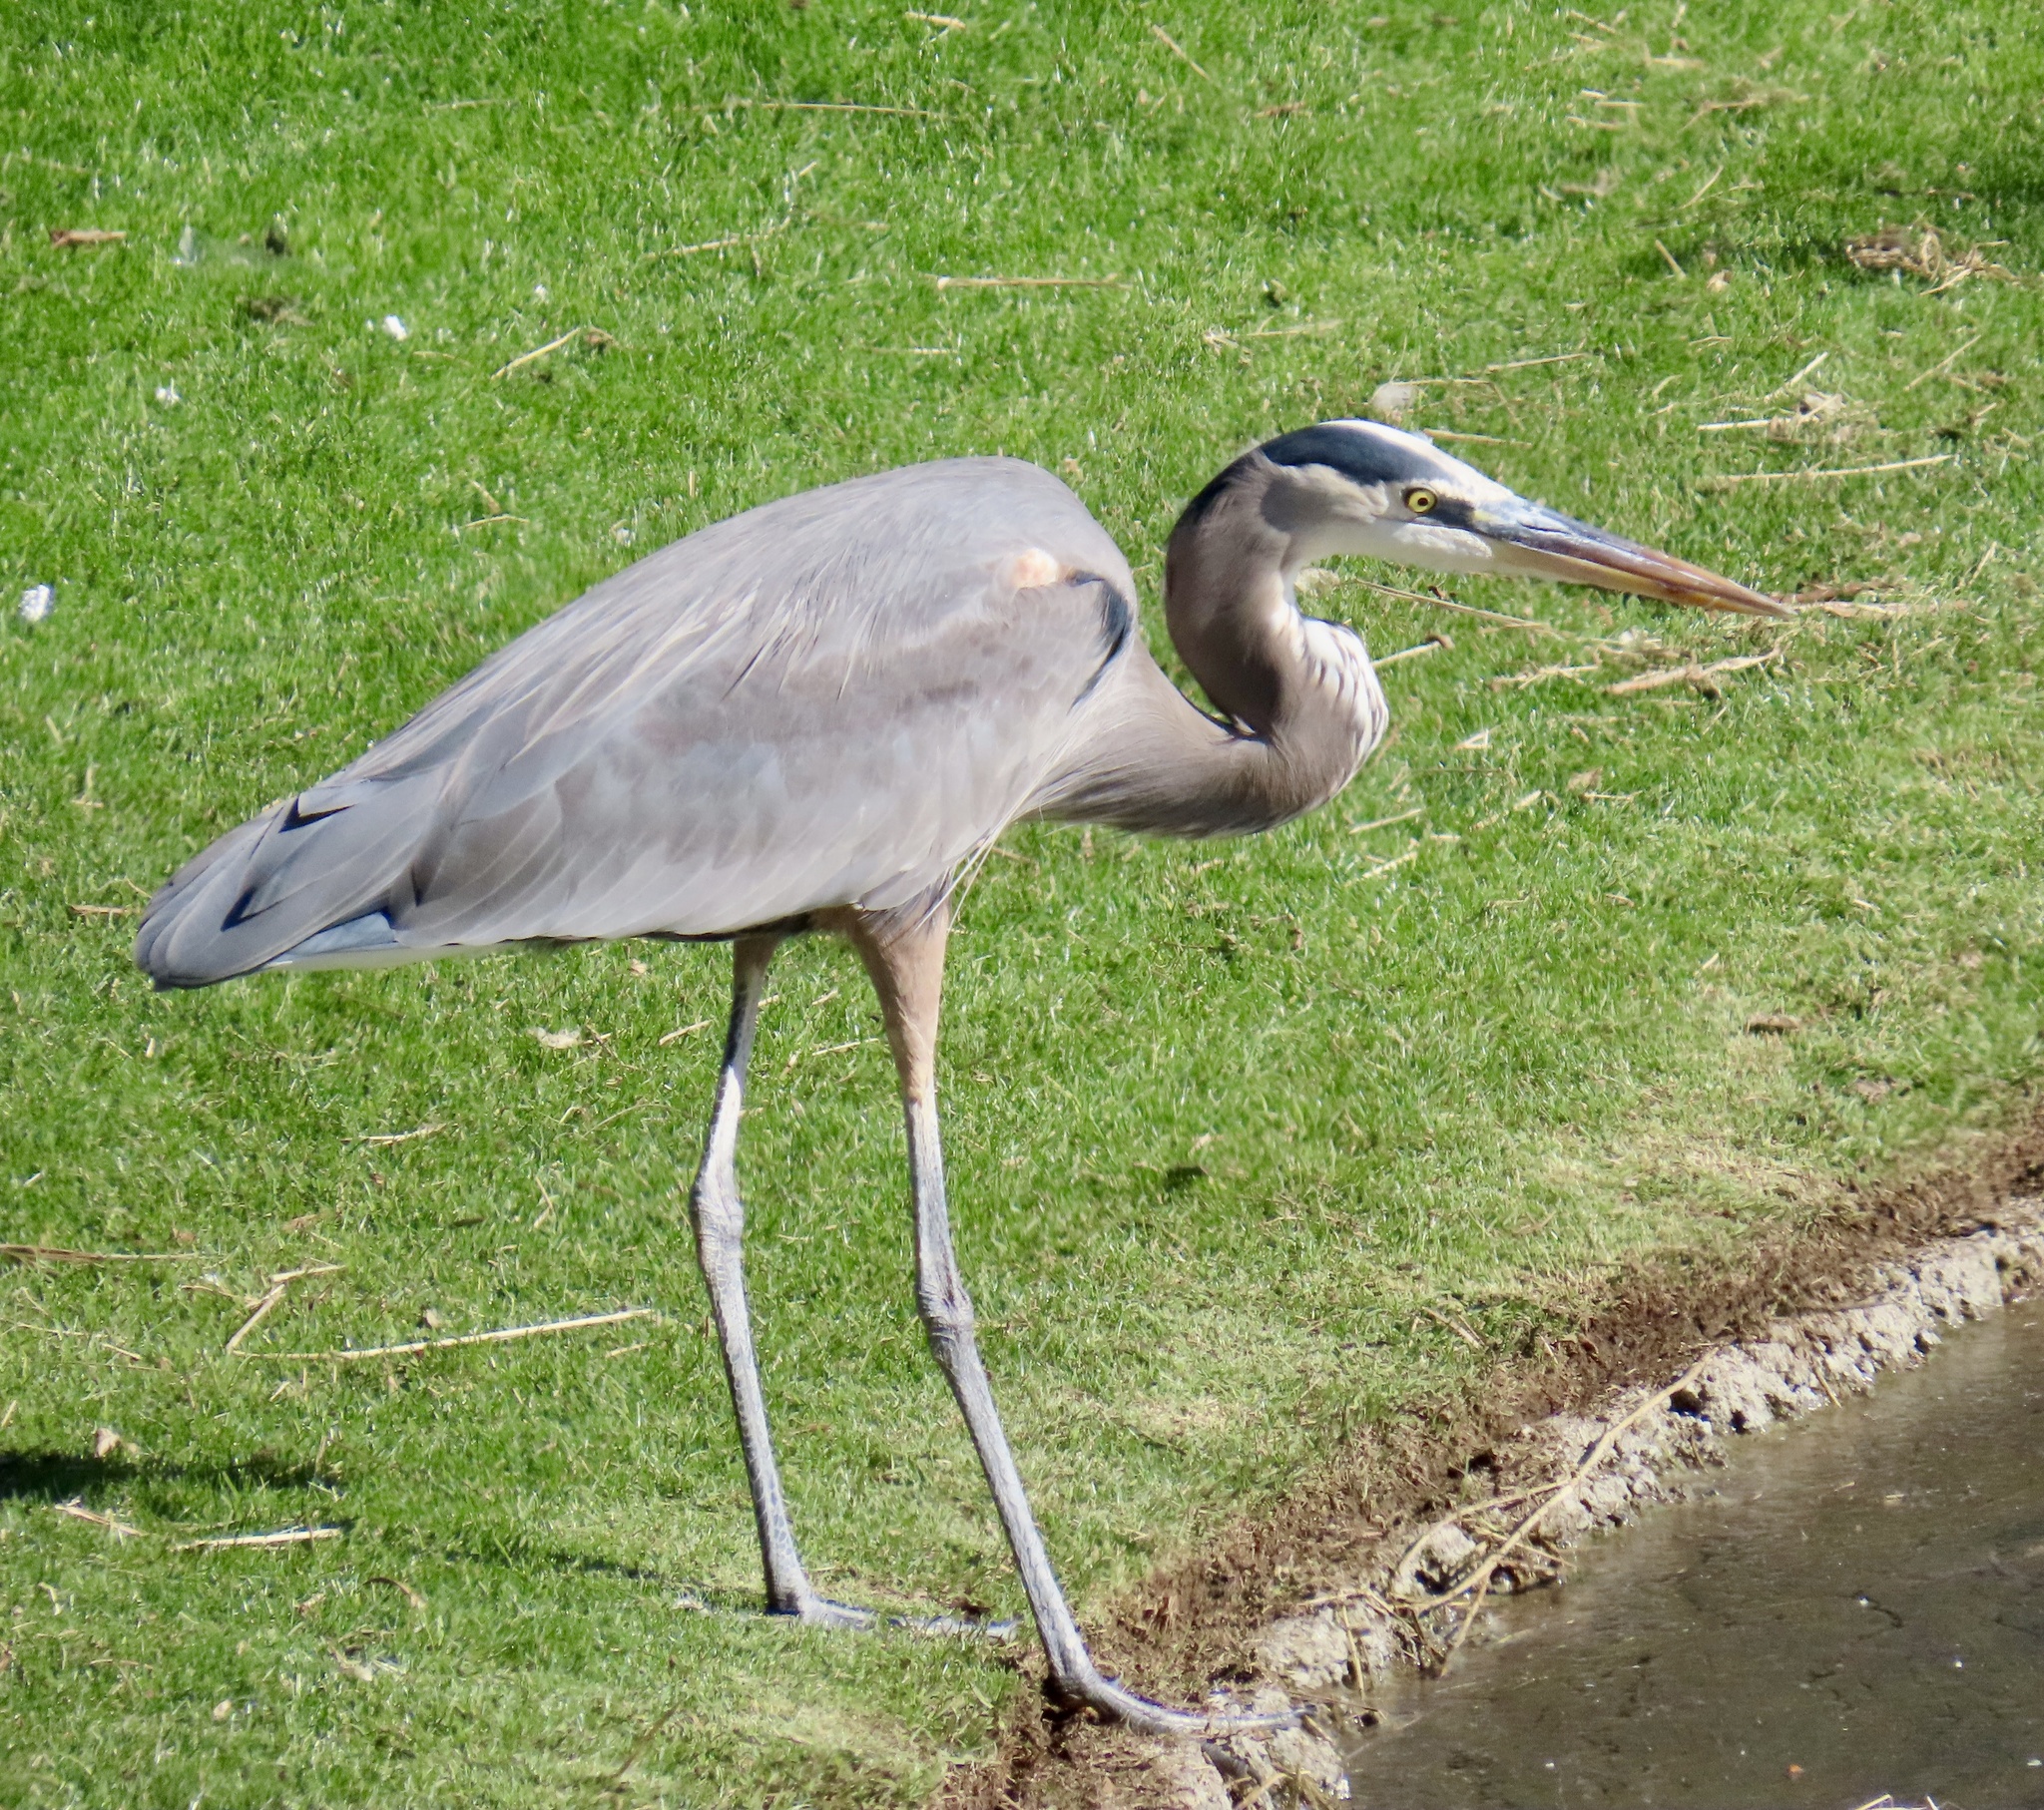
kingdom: Animalia
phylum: Chordata
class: Aves
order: Pelecaniformes
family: Ardeidae
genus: Ardea
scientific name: Ardea herodias
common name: Great blue heron
